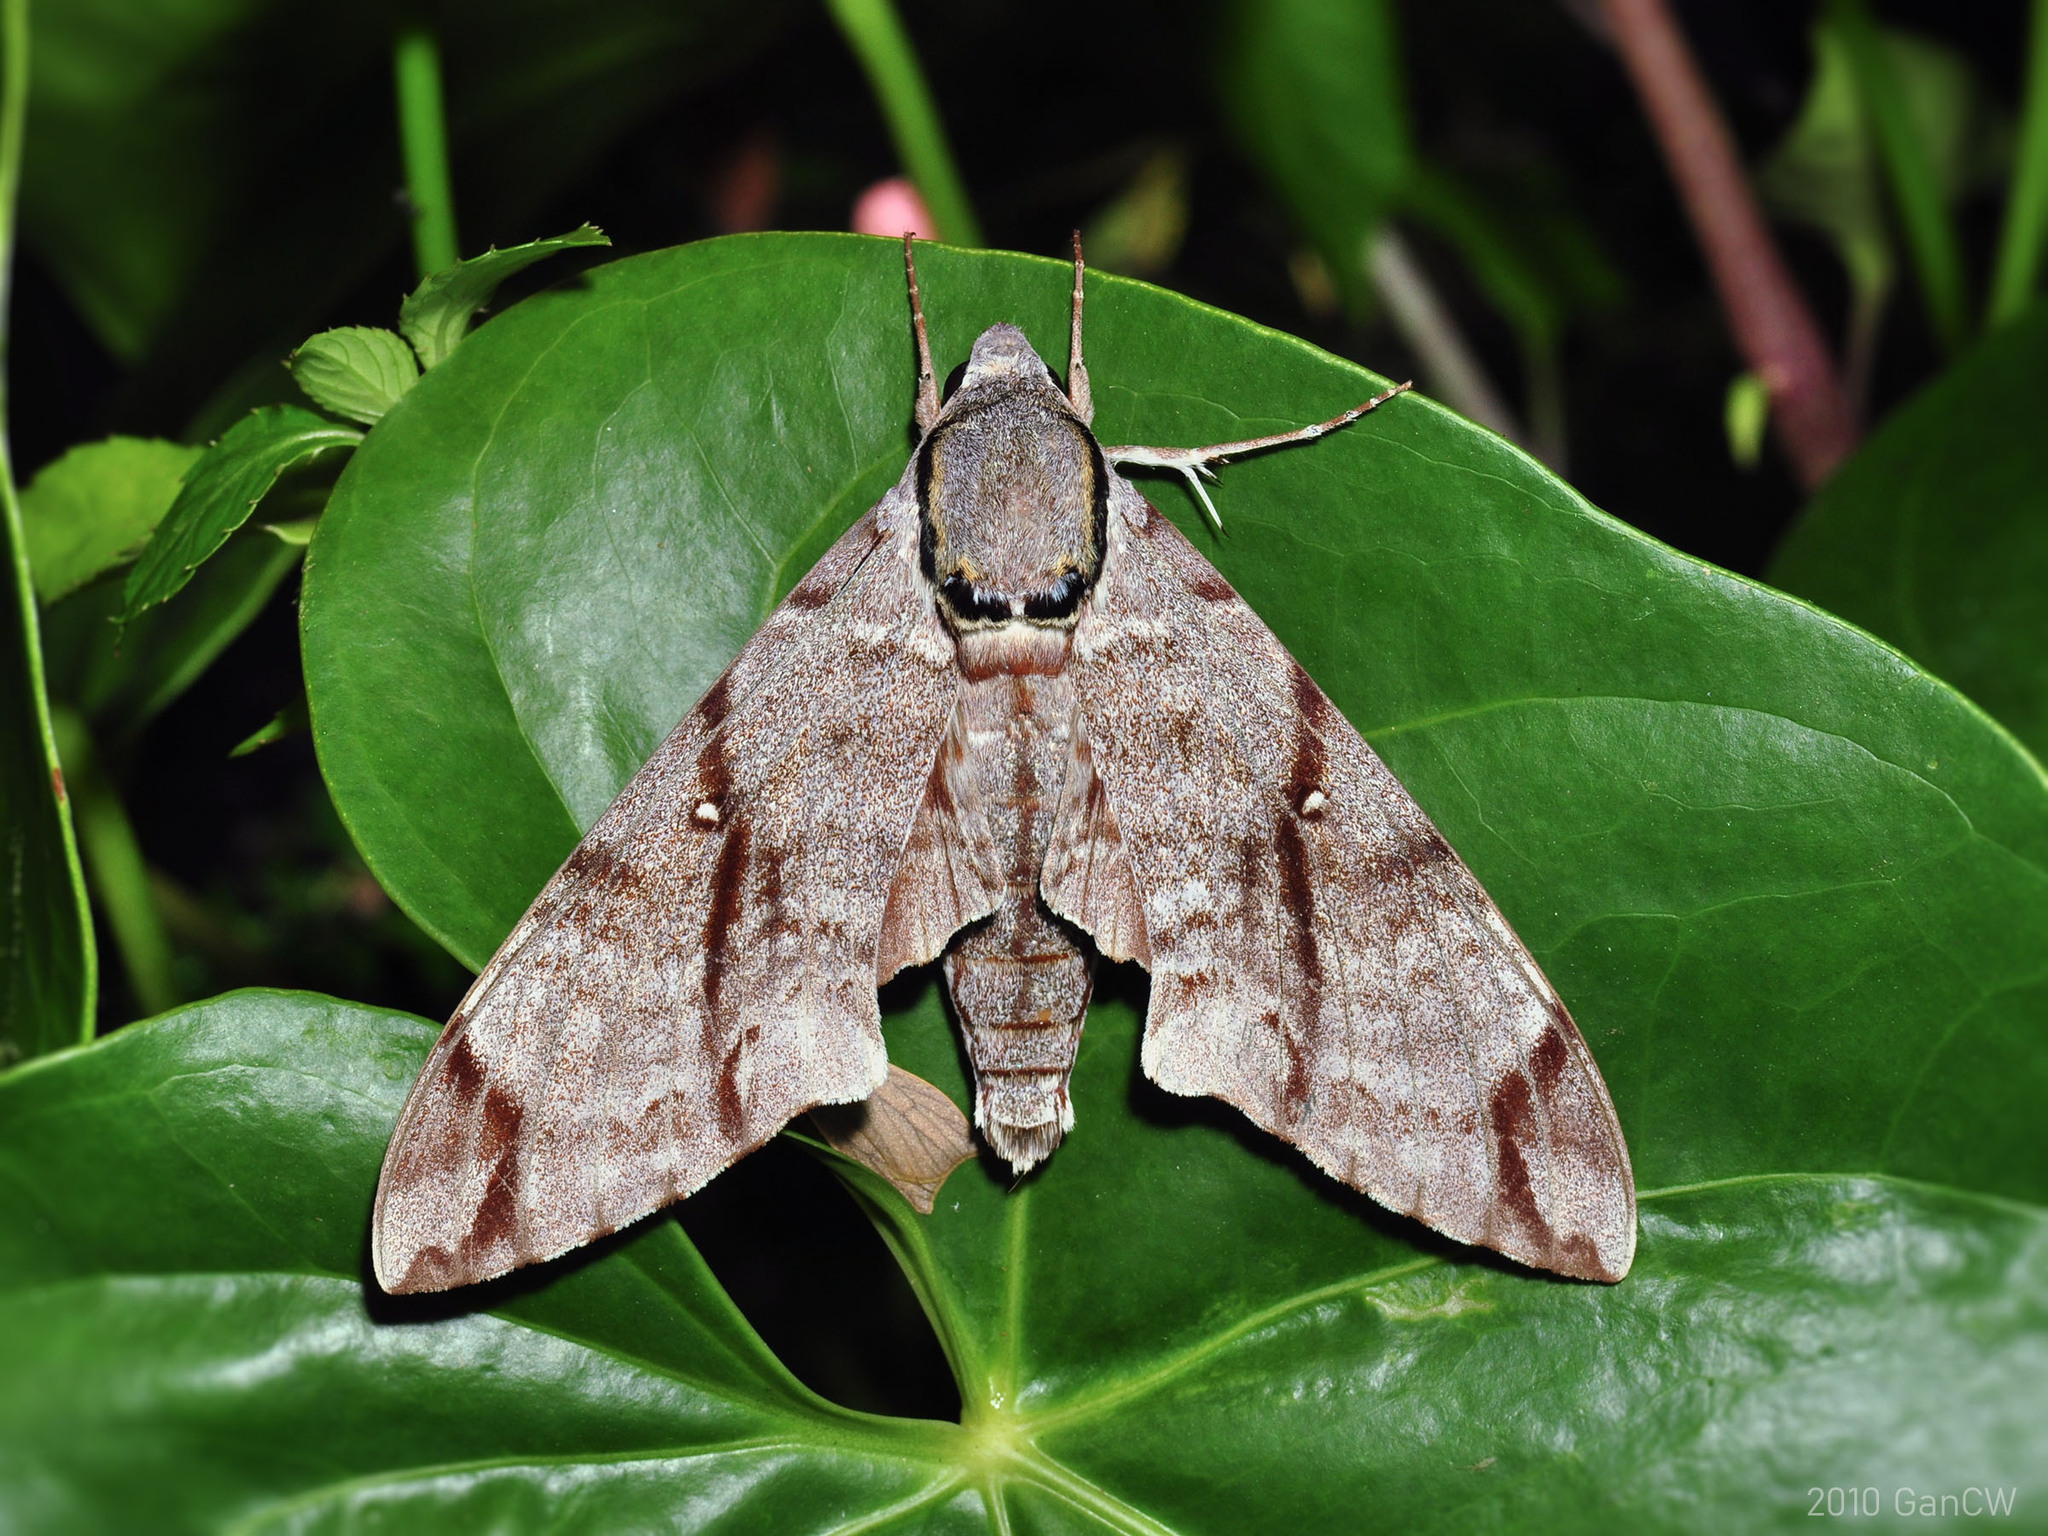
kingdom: Animalia
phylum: Arthropoda
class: Insecta
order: Lepidoptera
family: Sphingidae
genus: Notonagemia
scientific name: Notonagemia analis
